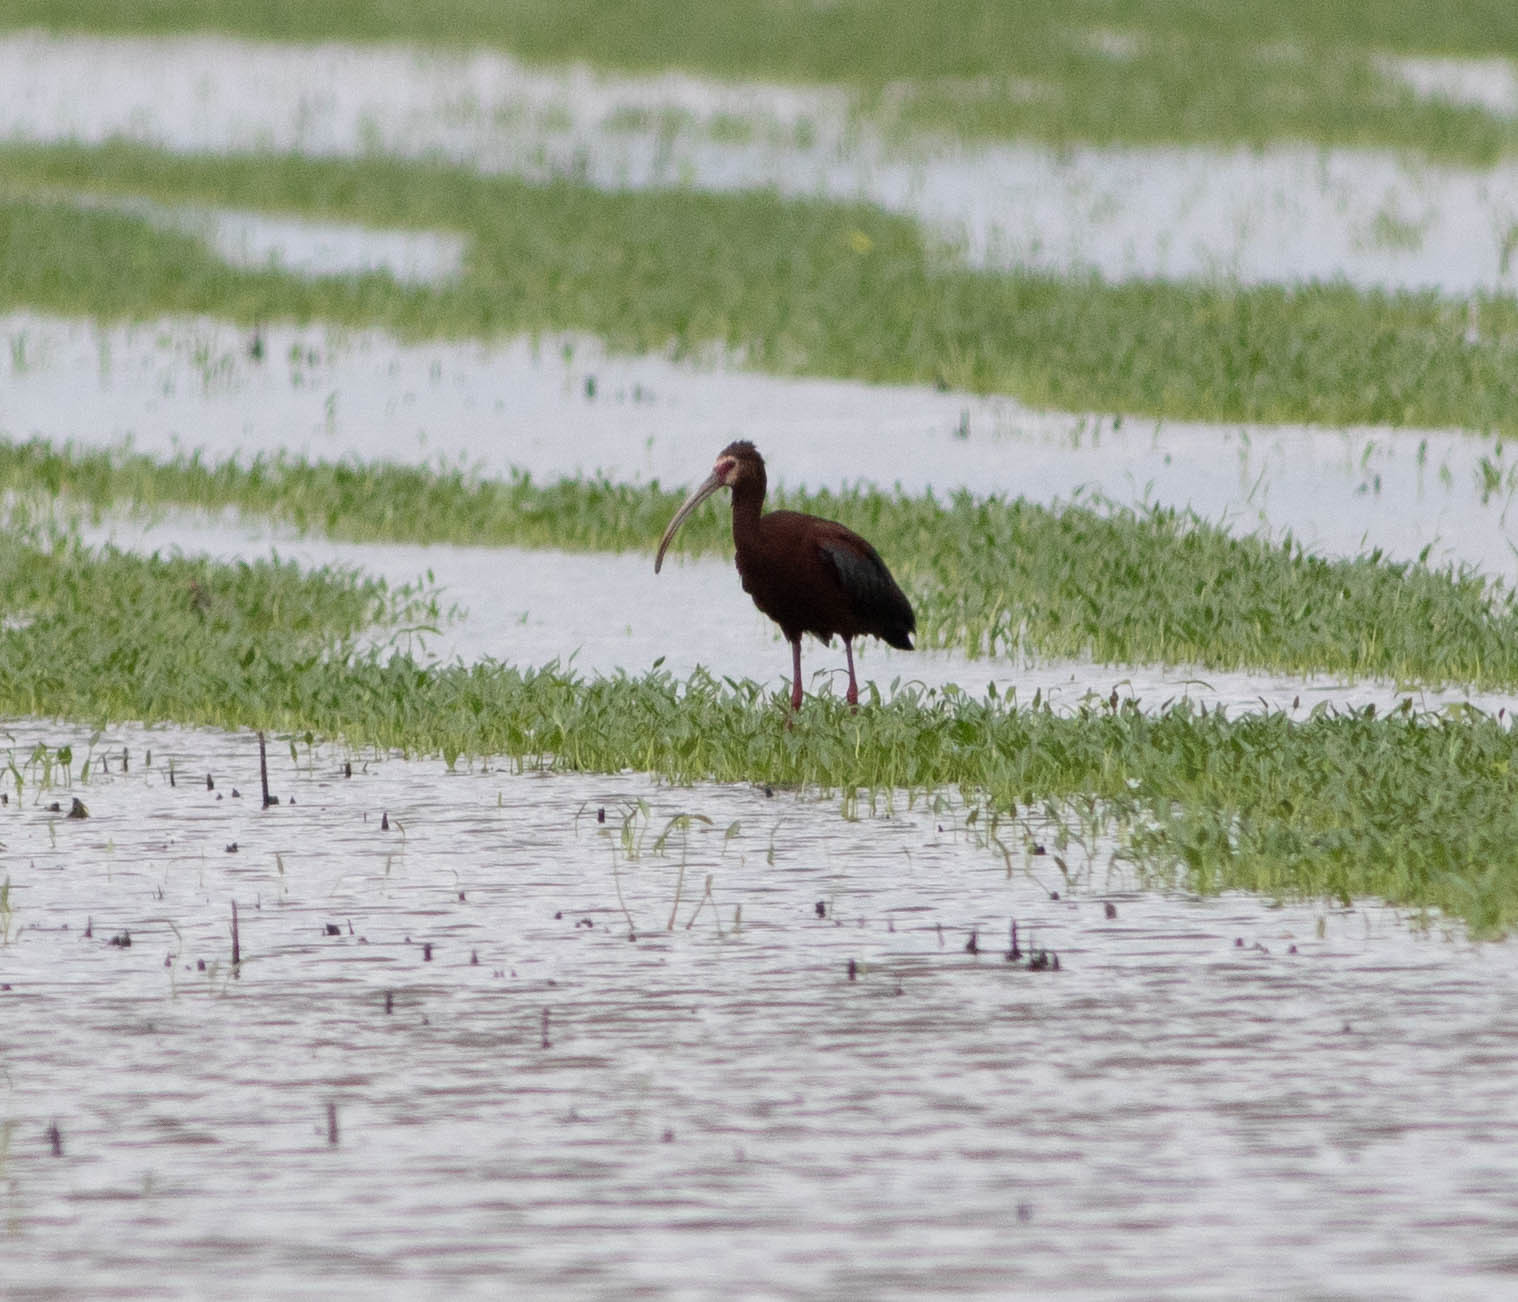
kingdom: Animalia
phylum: Chordata
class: Aves
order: Pelecaniformes
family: Threskiornithidae
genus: Plegadis
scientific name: Plegadis chihi
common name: White-faced ibis
